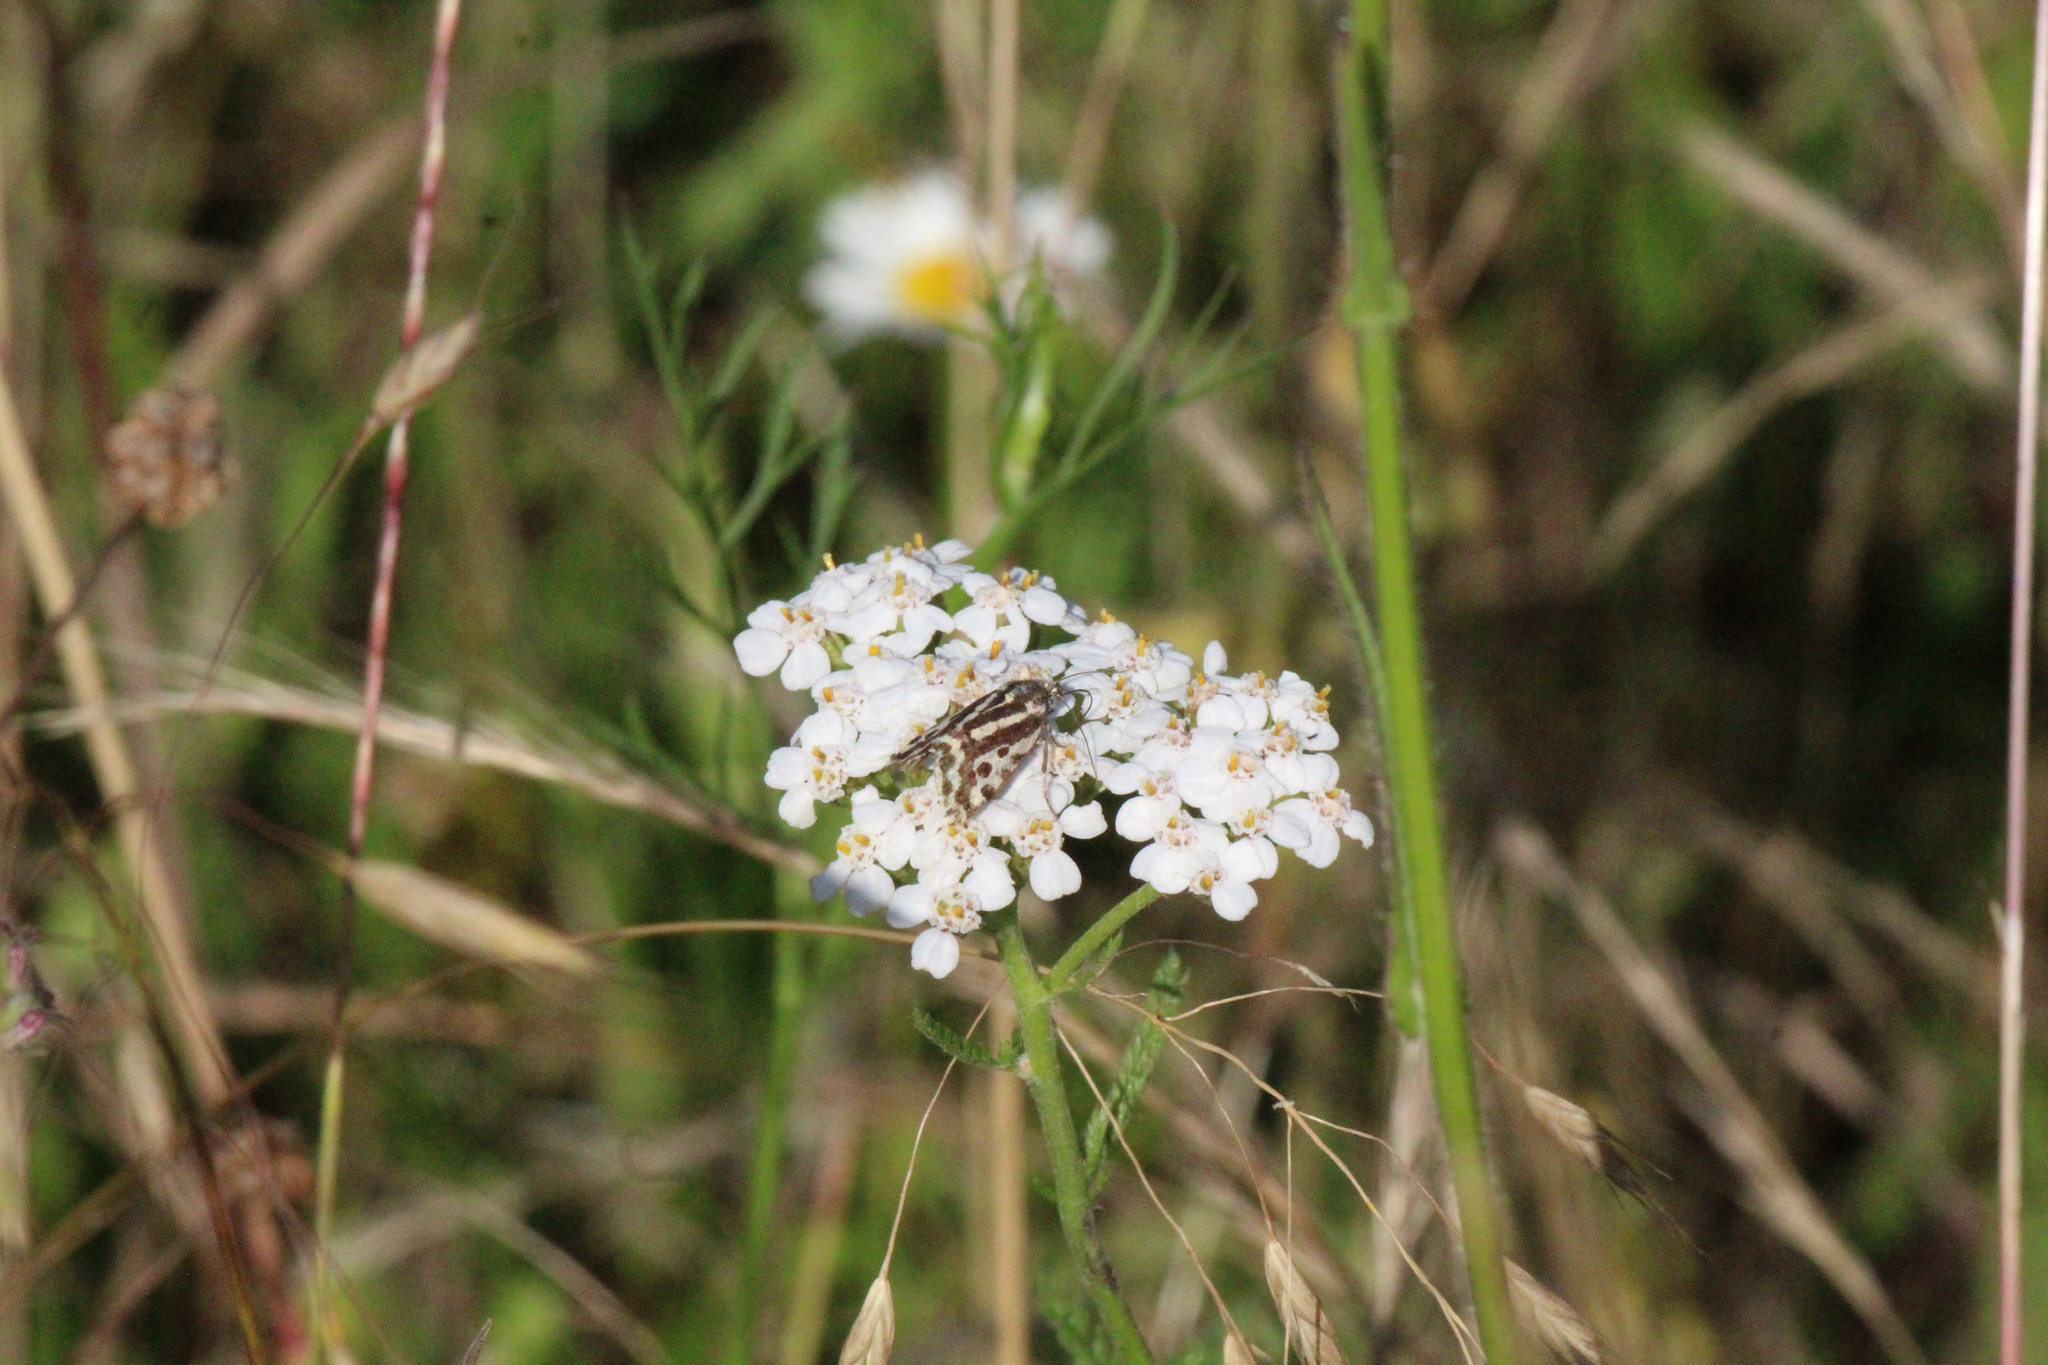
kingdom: Animalia
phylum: Arthropoda
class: Insecta
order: Lepidoptera
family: Noctuidae
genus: Acontia
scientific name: Acontia trabealis
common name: Spotted sulphur
